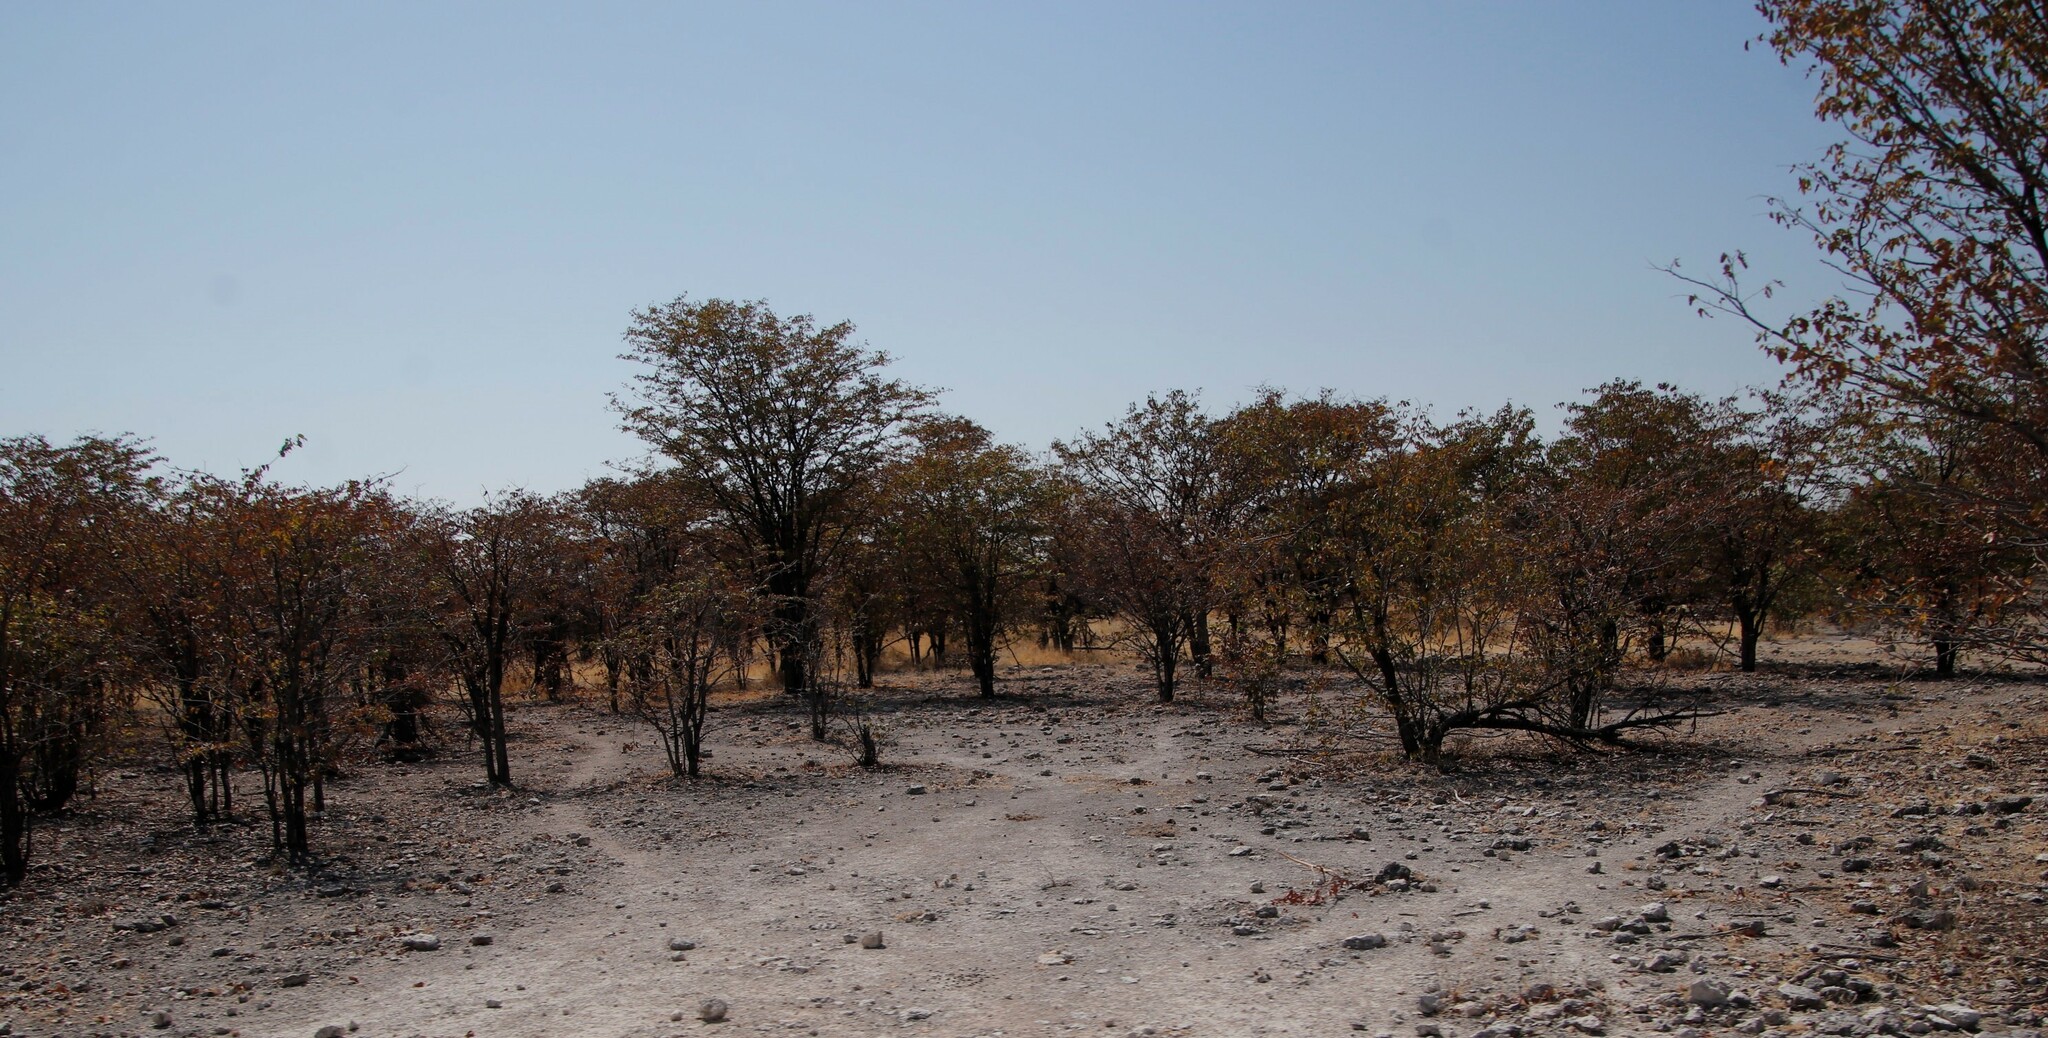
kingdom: Plantae
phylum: Tracheophyta
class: Magnoliopsida
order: Fabales
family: Fabaceae
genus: Colophospermum
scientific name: Colophospermum mopane
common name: Mopane
